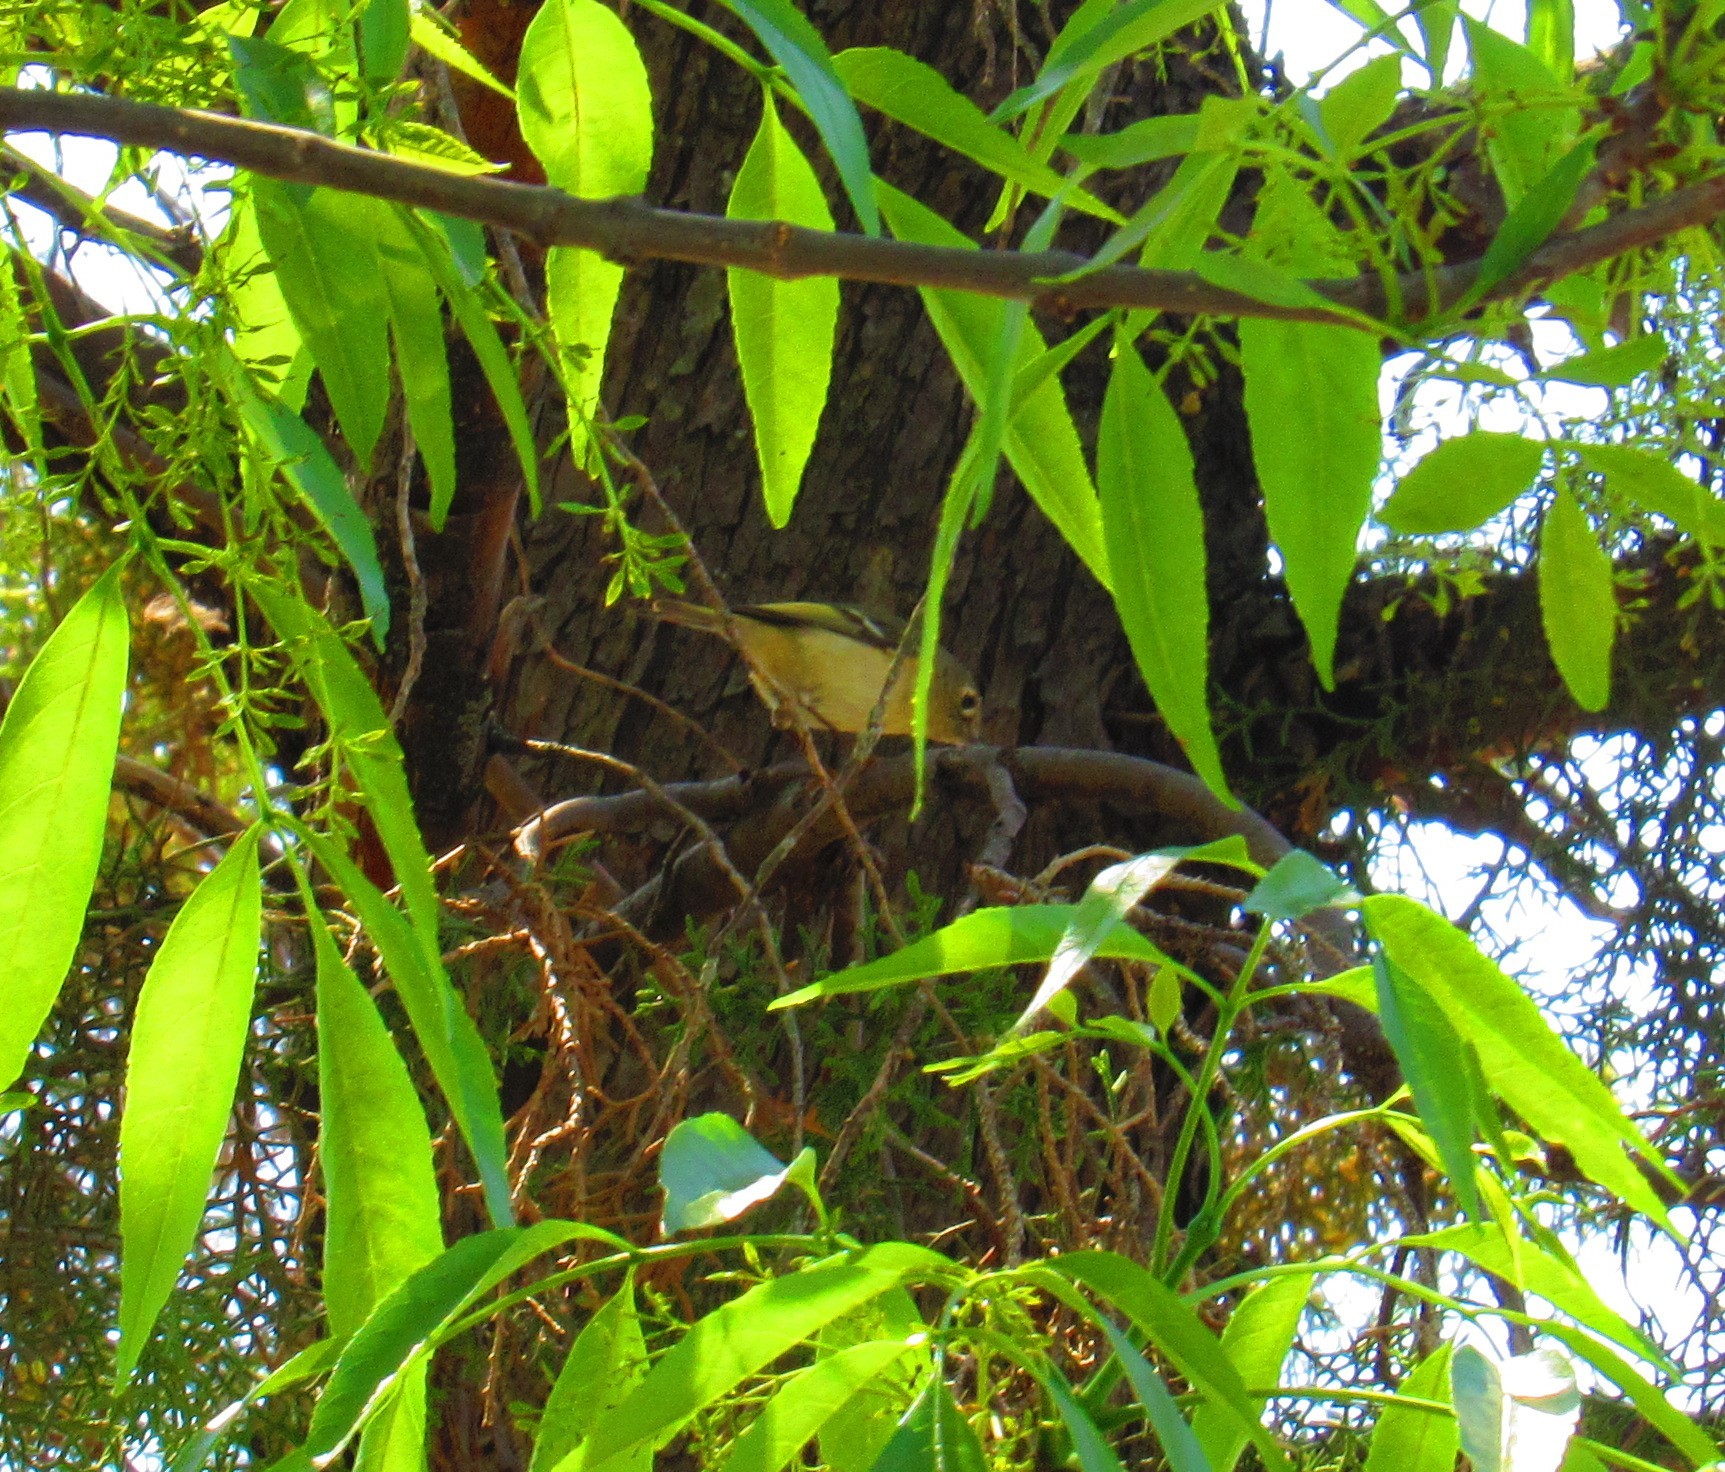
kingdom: Animalia
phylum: Chordata
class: Aves
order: Passeriformes
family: Regulidae
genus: Regulus
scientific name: Regulus calendula
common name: Ruby-crowned kinglet
